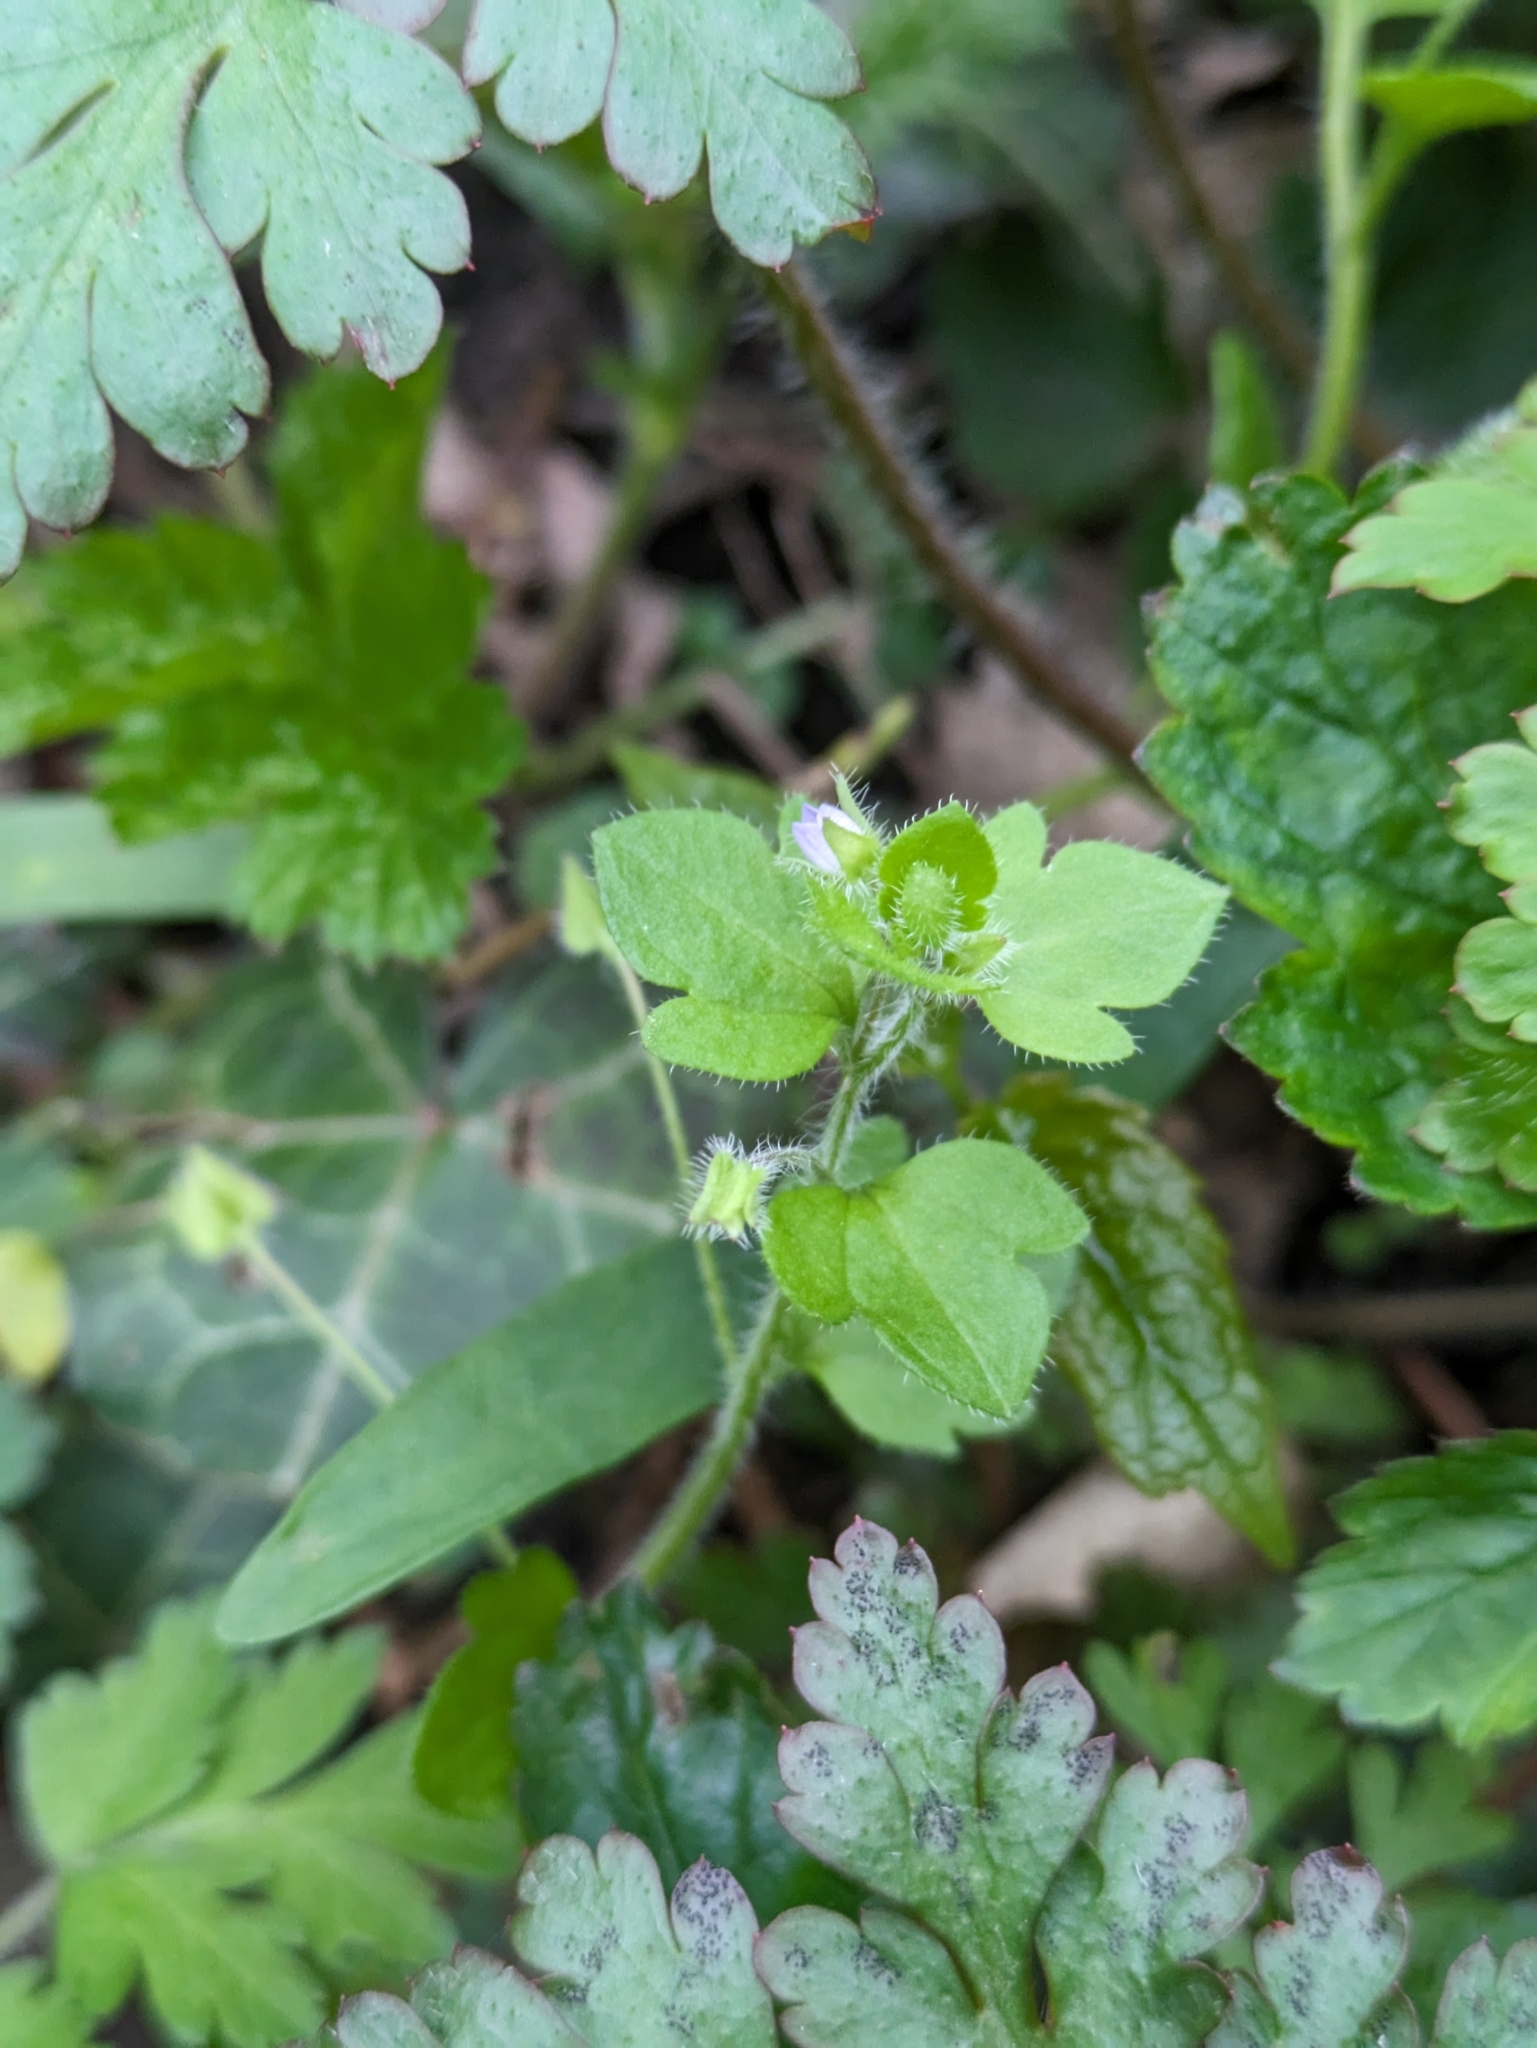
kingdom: Plantae
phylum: Tracheophyta
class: Magnoliopsida
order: Lamiales
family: Plantaginaceae
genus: Veronica
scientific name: Veronica sublobata
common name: False ivy-leaved speedwell
